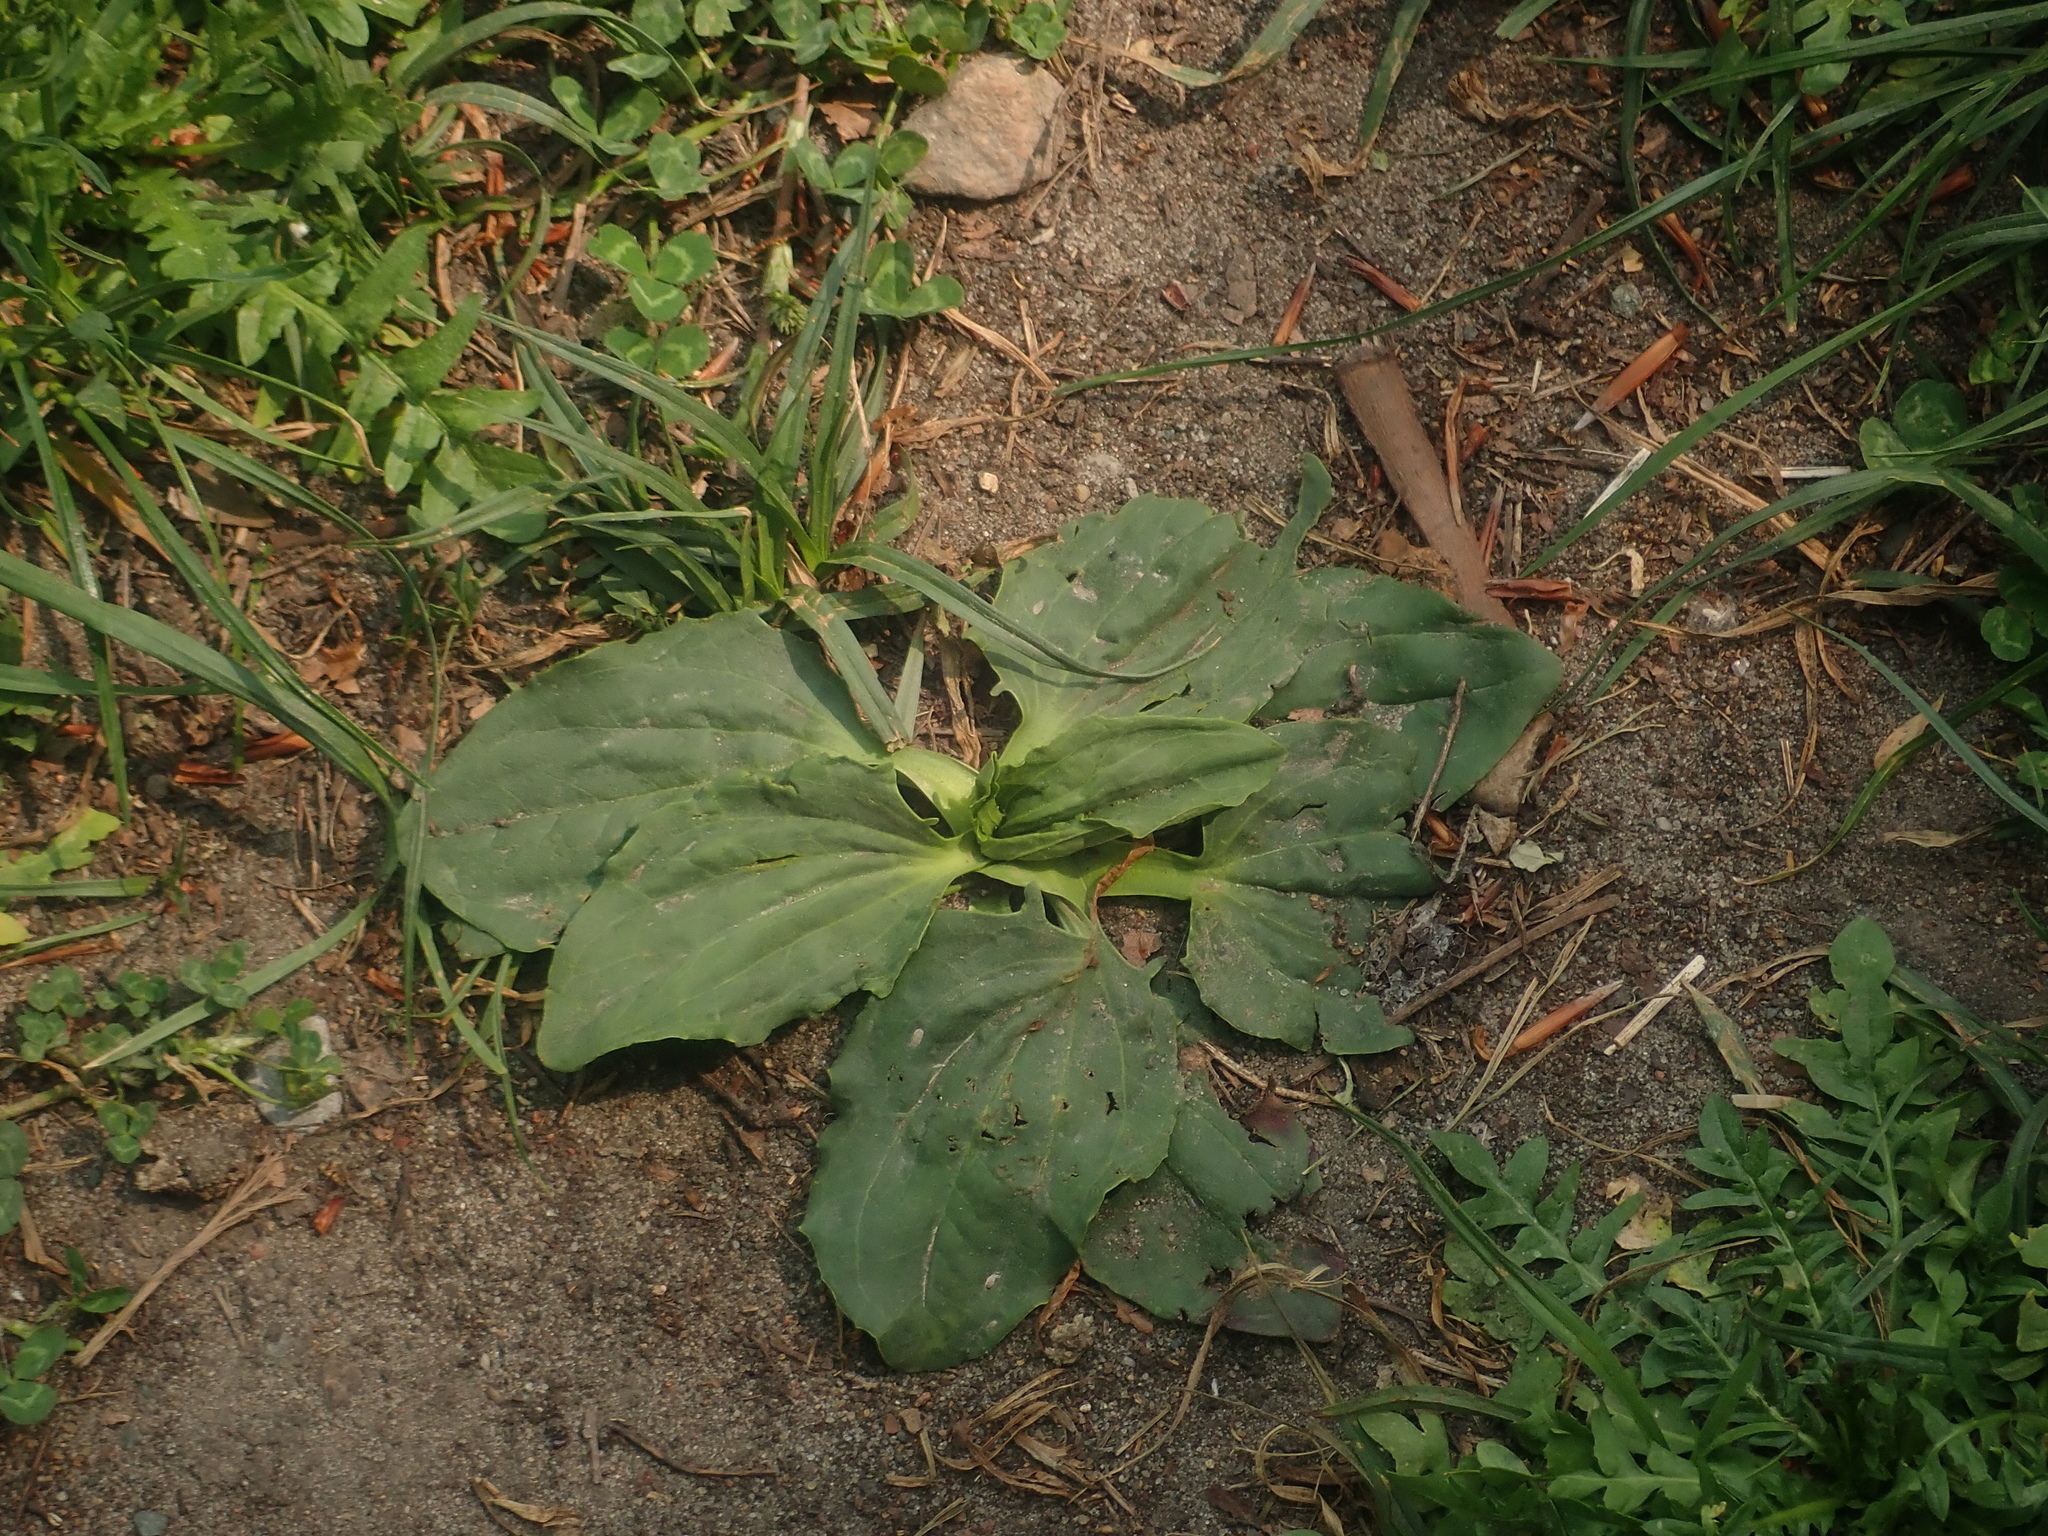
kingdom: Plantae
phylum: Tracheophyta
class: Magnoliopsida
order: Lamiales
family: Plantaginaceae
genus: Plantago
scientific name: Plantago major
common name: Common plantain
